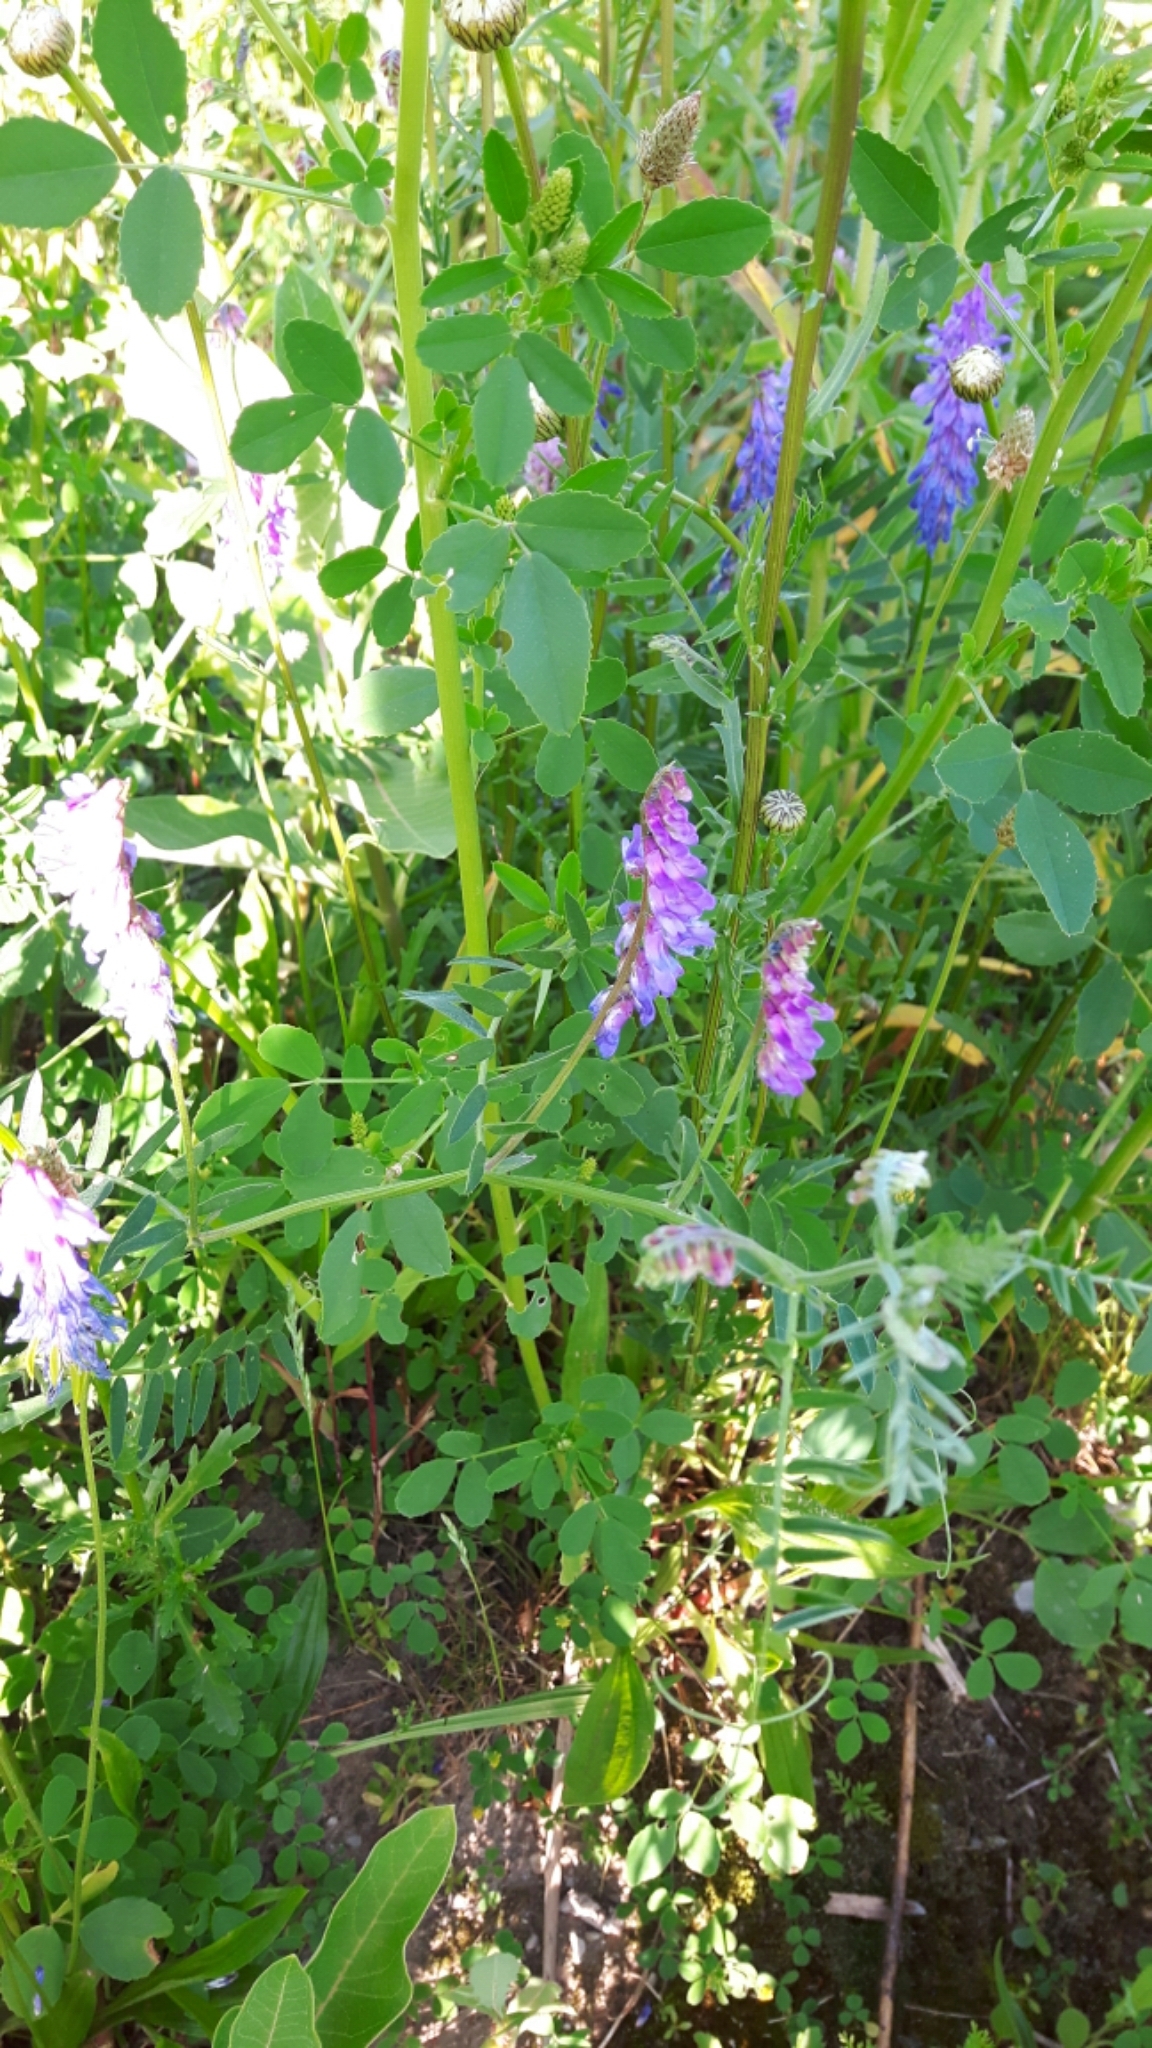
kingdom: Plantae
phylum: Tracheophyta
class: Magnoliopsida
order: Fabales
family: Fabaceae
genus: Vicia
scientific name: Vicia cracca
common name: Bird vetch
